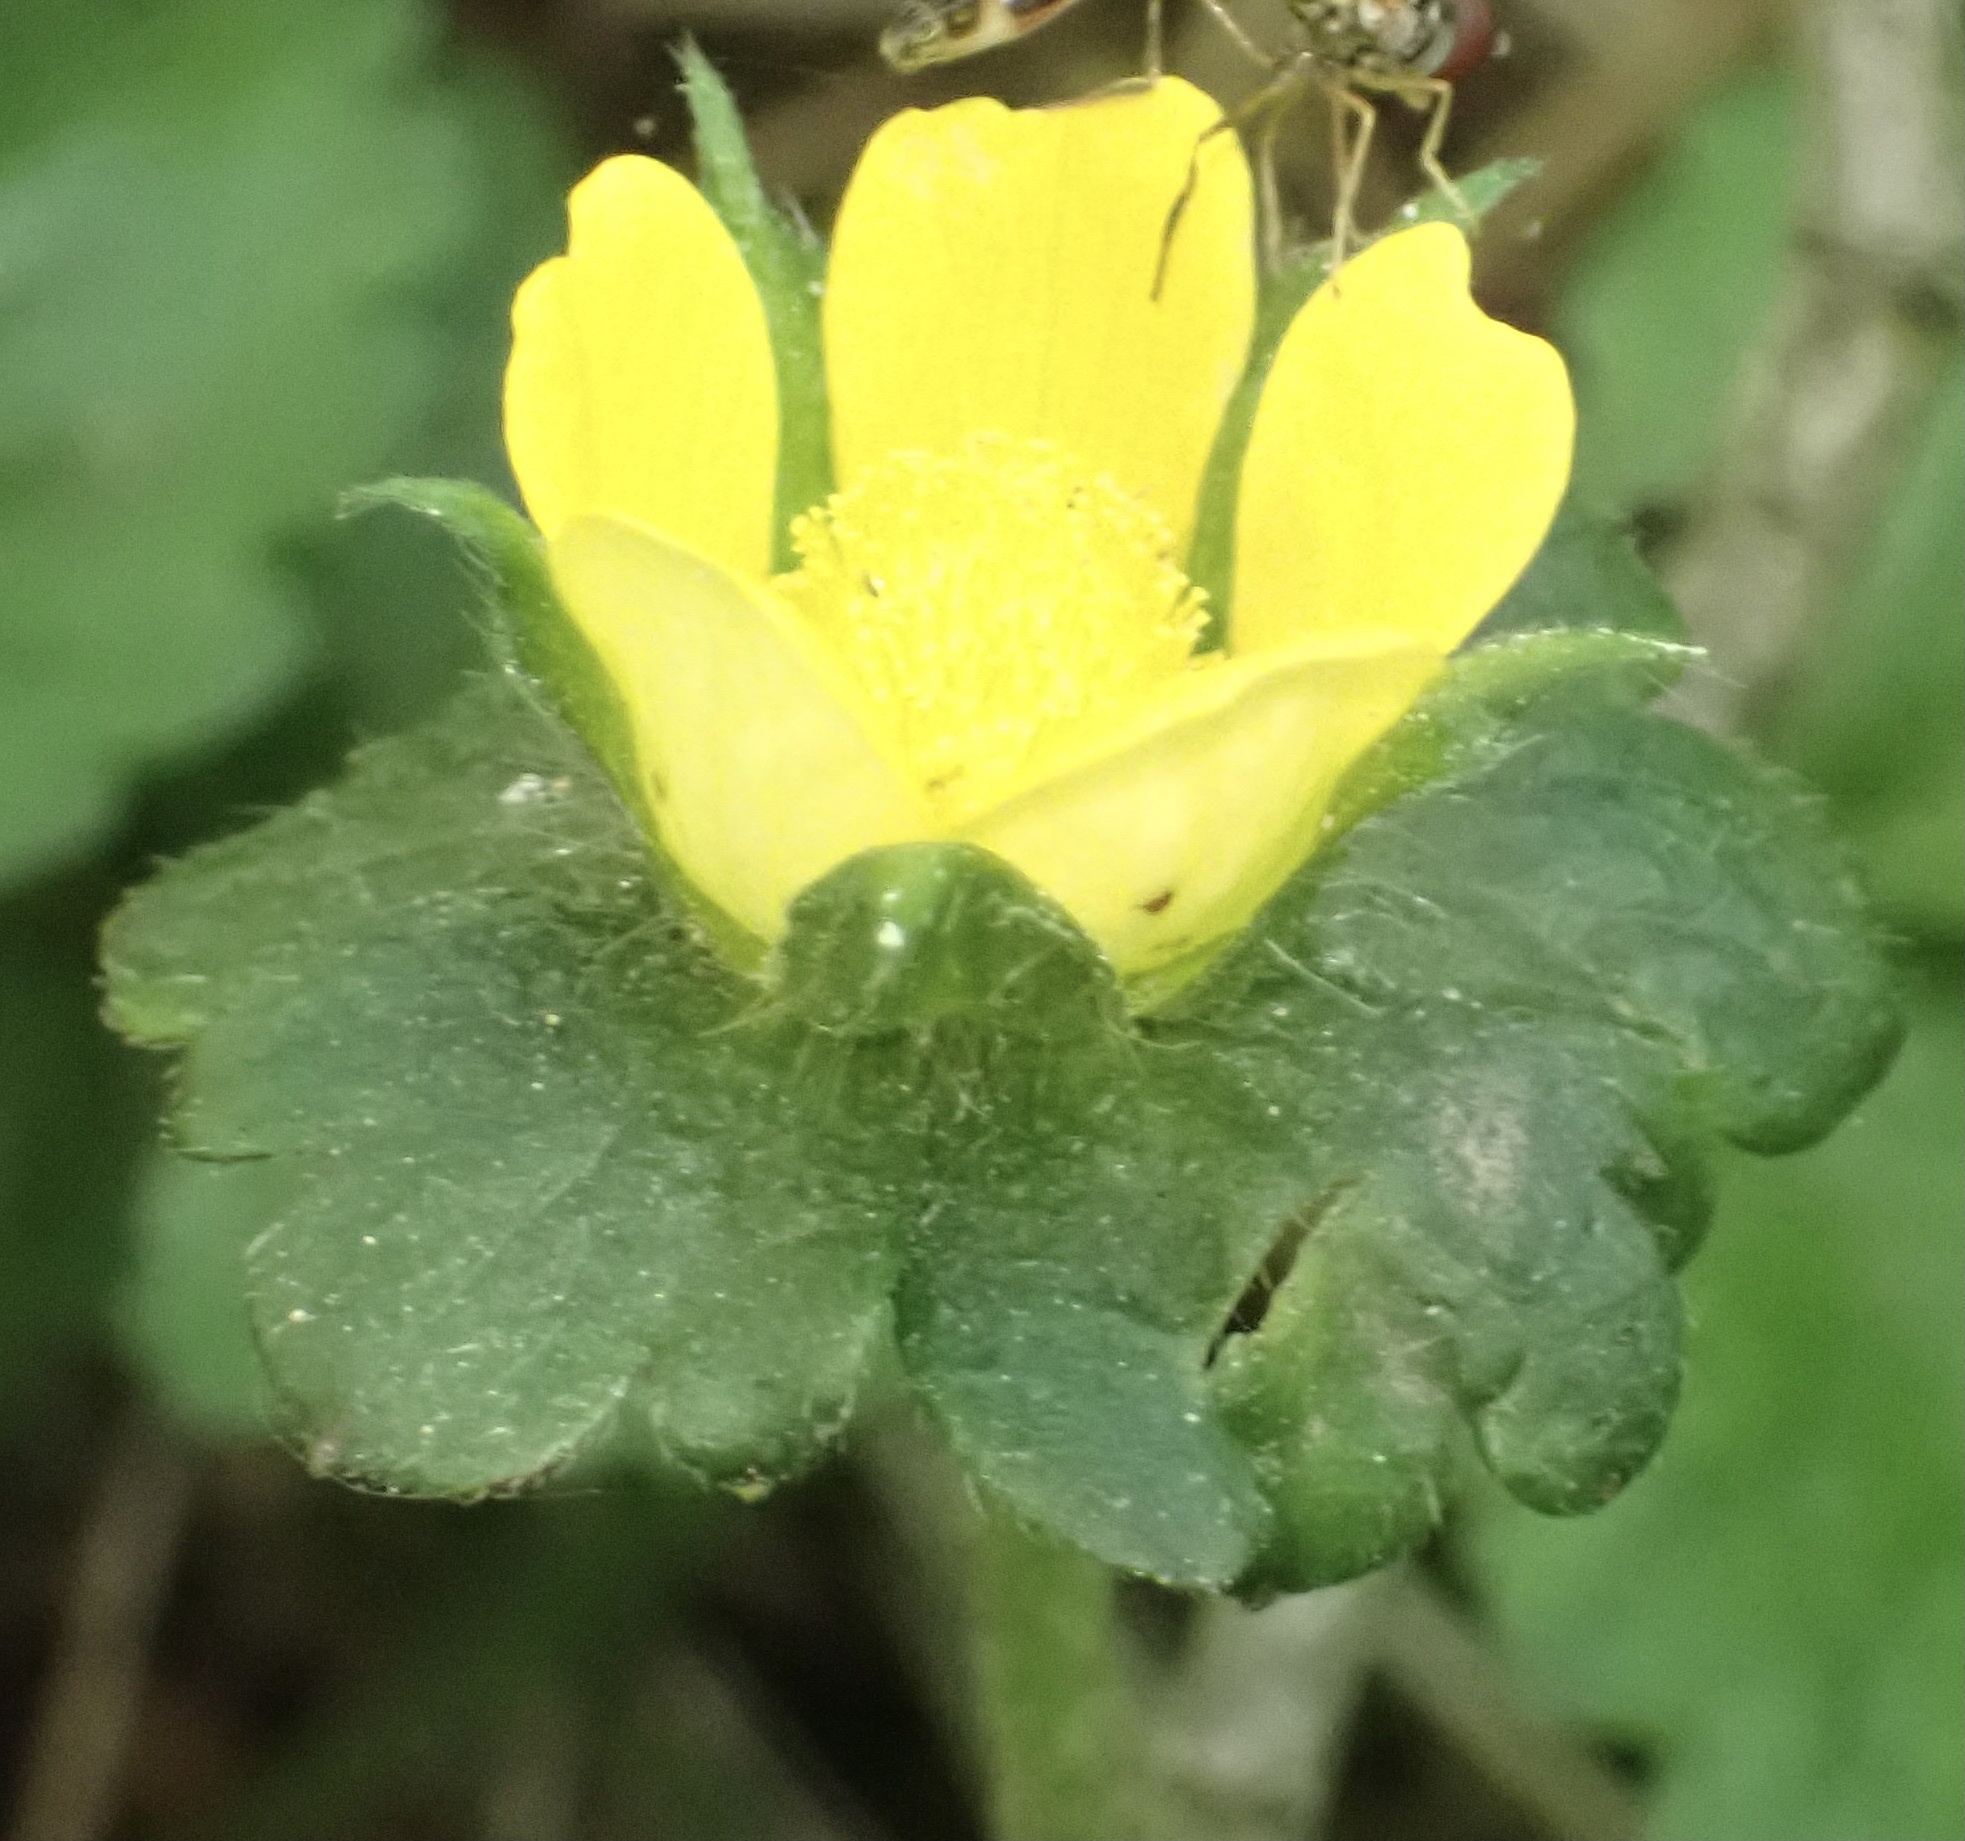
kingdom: Plantae
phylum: Tracheophyta
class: Magnoliopsida
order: Rosales
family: Rosaceae
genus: Potentilla
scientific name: Potentilla indica
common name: Yellow-flowered strawberry
